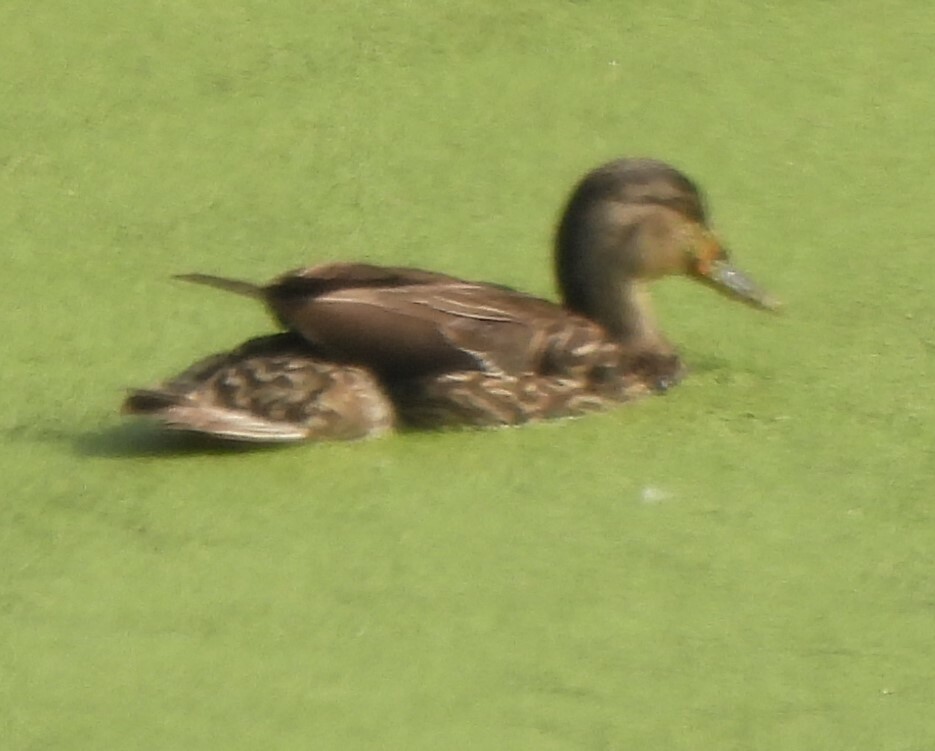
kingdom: Animalia
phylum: Chordata
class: Aves
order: Anseriformes
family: Anatidae
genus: Anas
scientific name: Anas platyrhynchos
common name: Mallard
